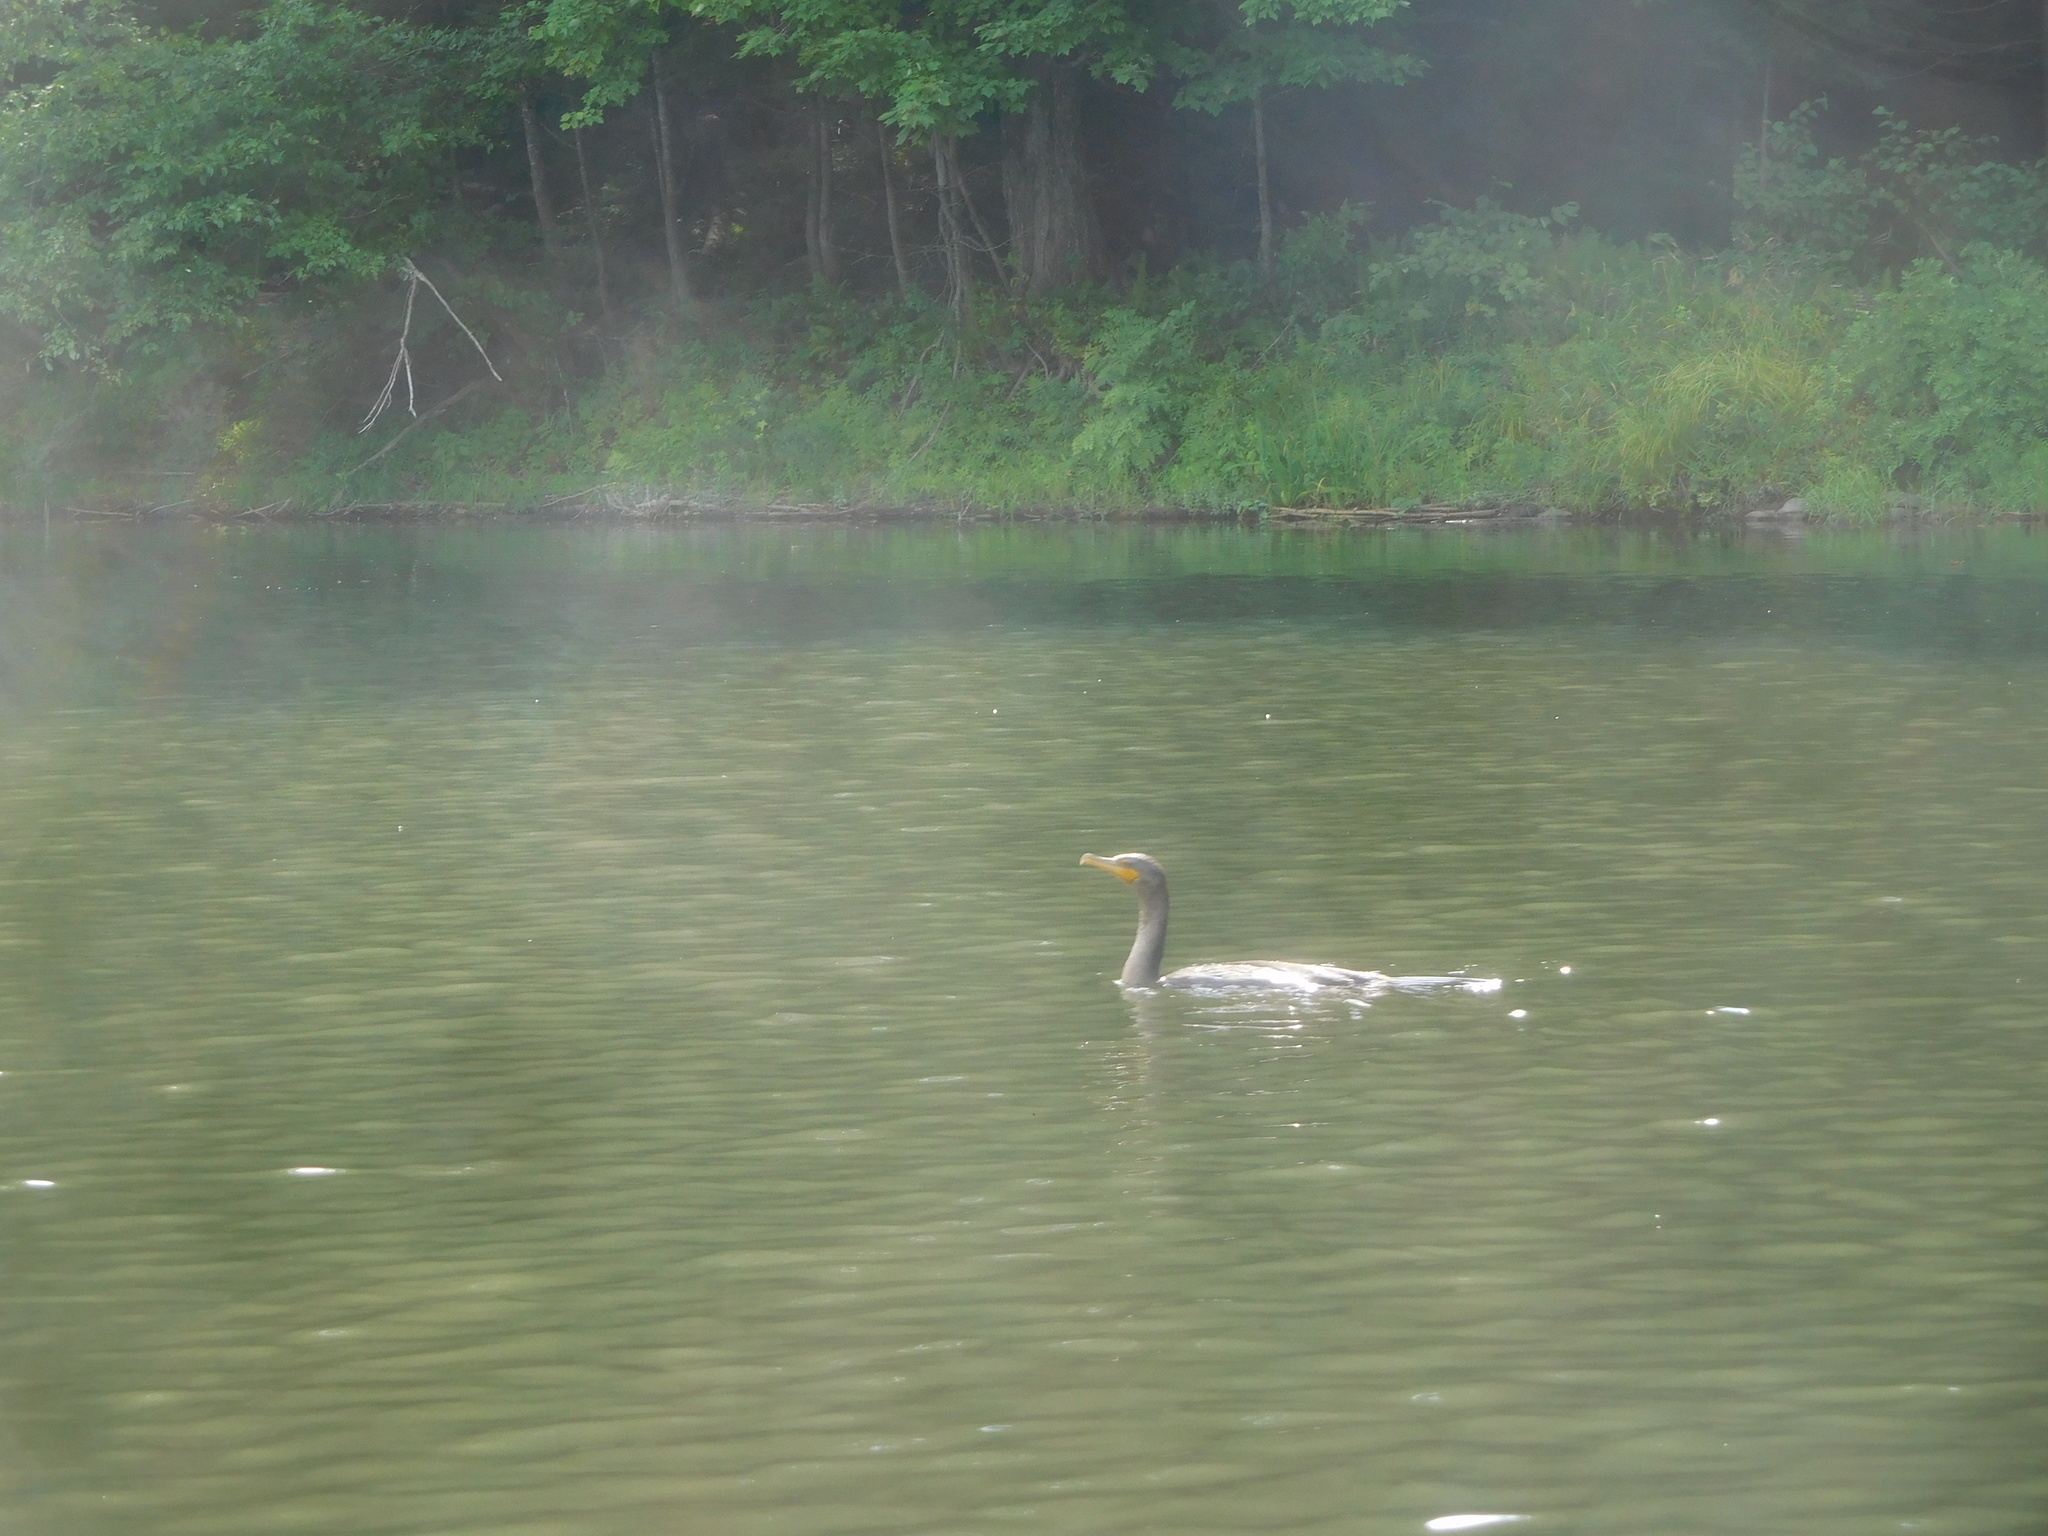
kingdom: Animalia
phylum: Chordata
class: Aves
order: Suliformes
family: Phalacrocoracidae
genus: Phalacrocorax
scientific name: Phalacrocorax auritus
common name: Double-crested cormorant
